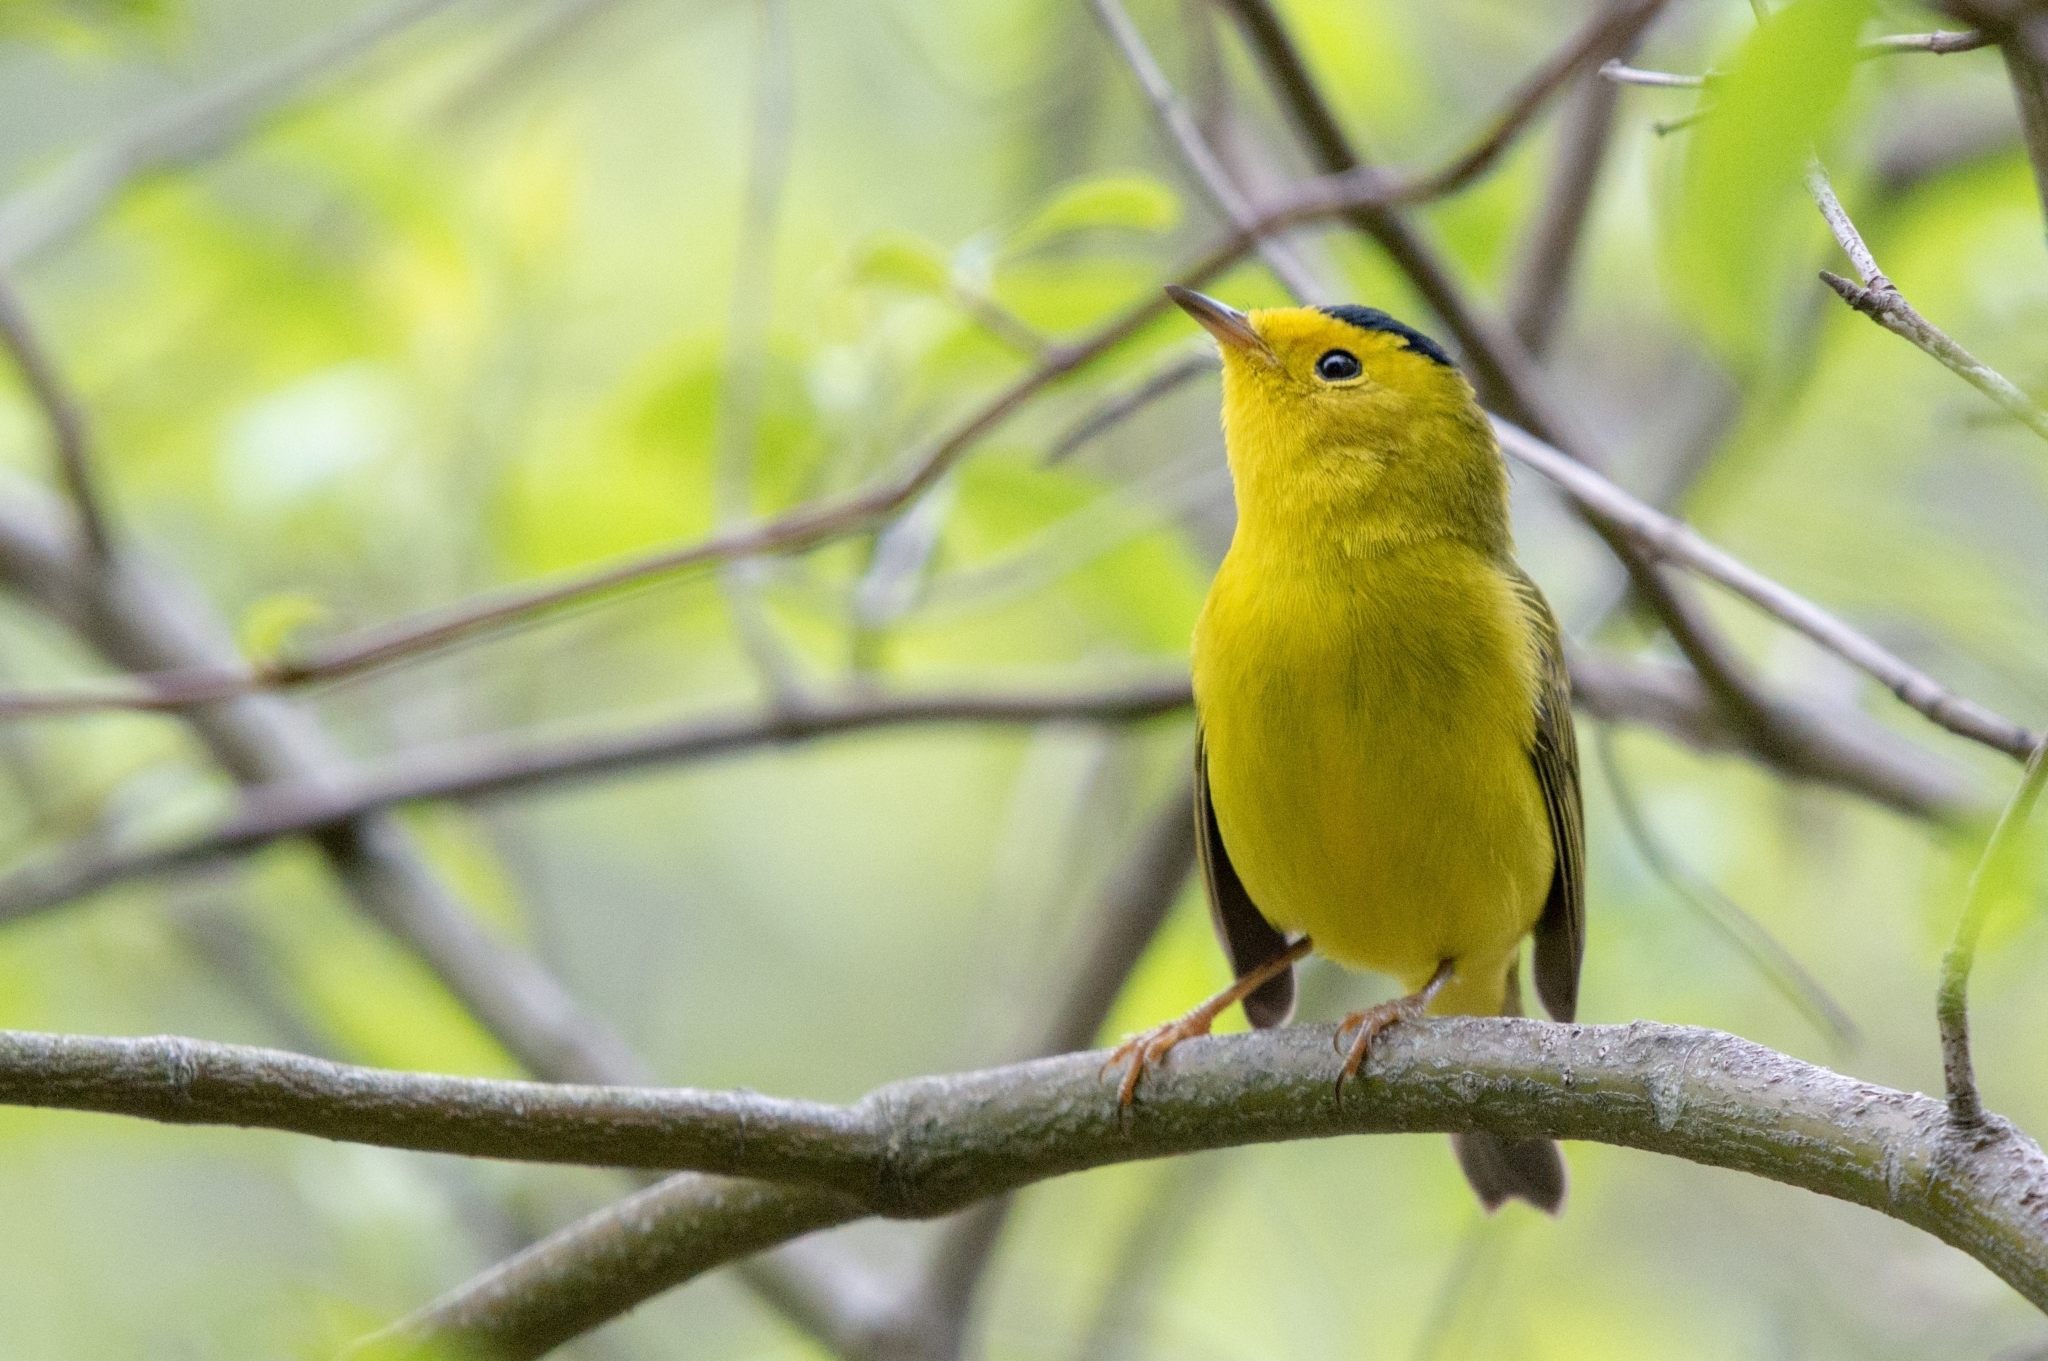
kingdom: Animalia
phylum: Chordata
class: Aves
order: Passeriformes
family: Parulidae
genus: Cardellina
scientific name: Cardellina pusilla
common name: Wilson's warbler
